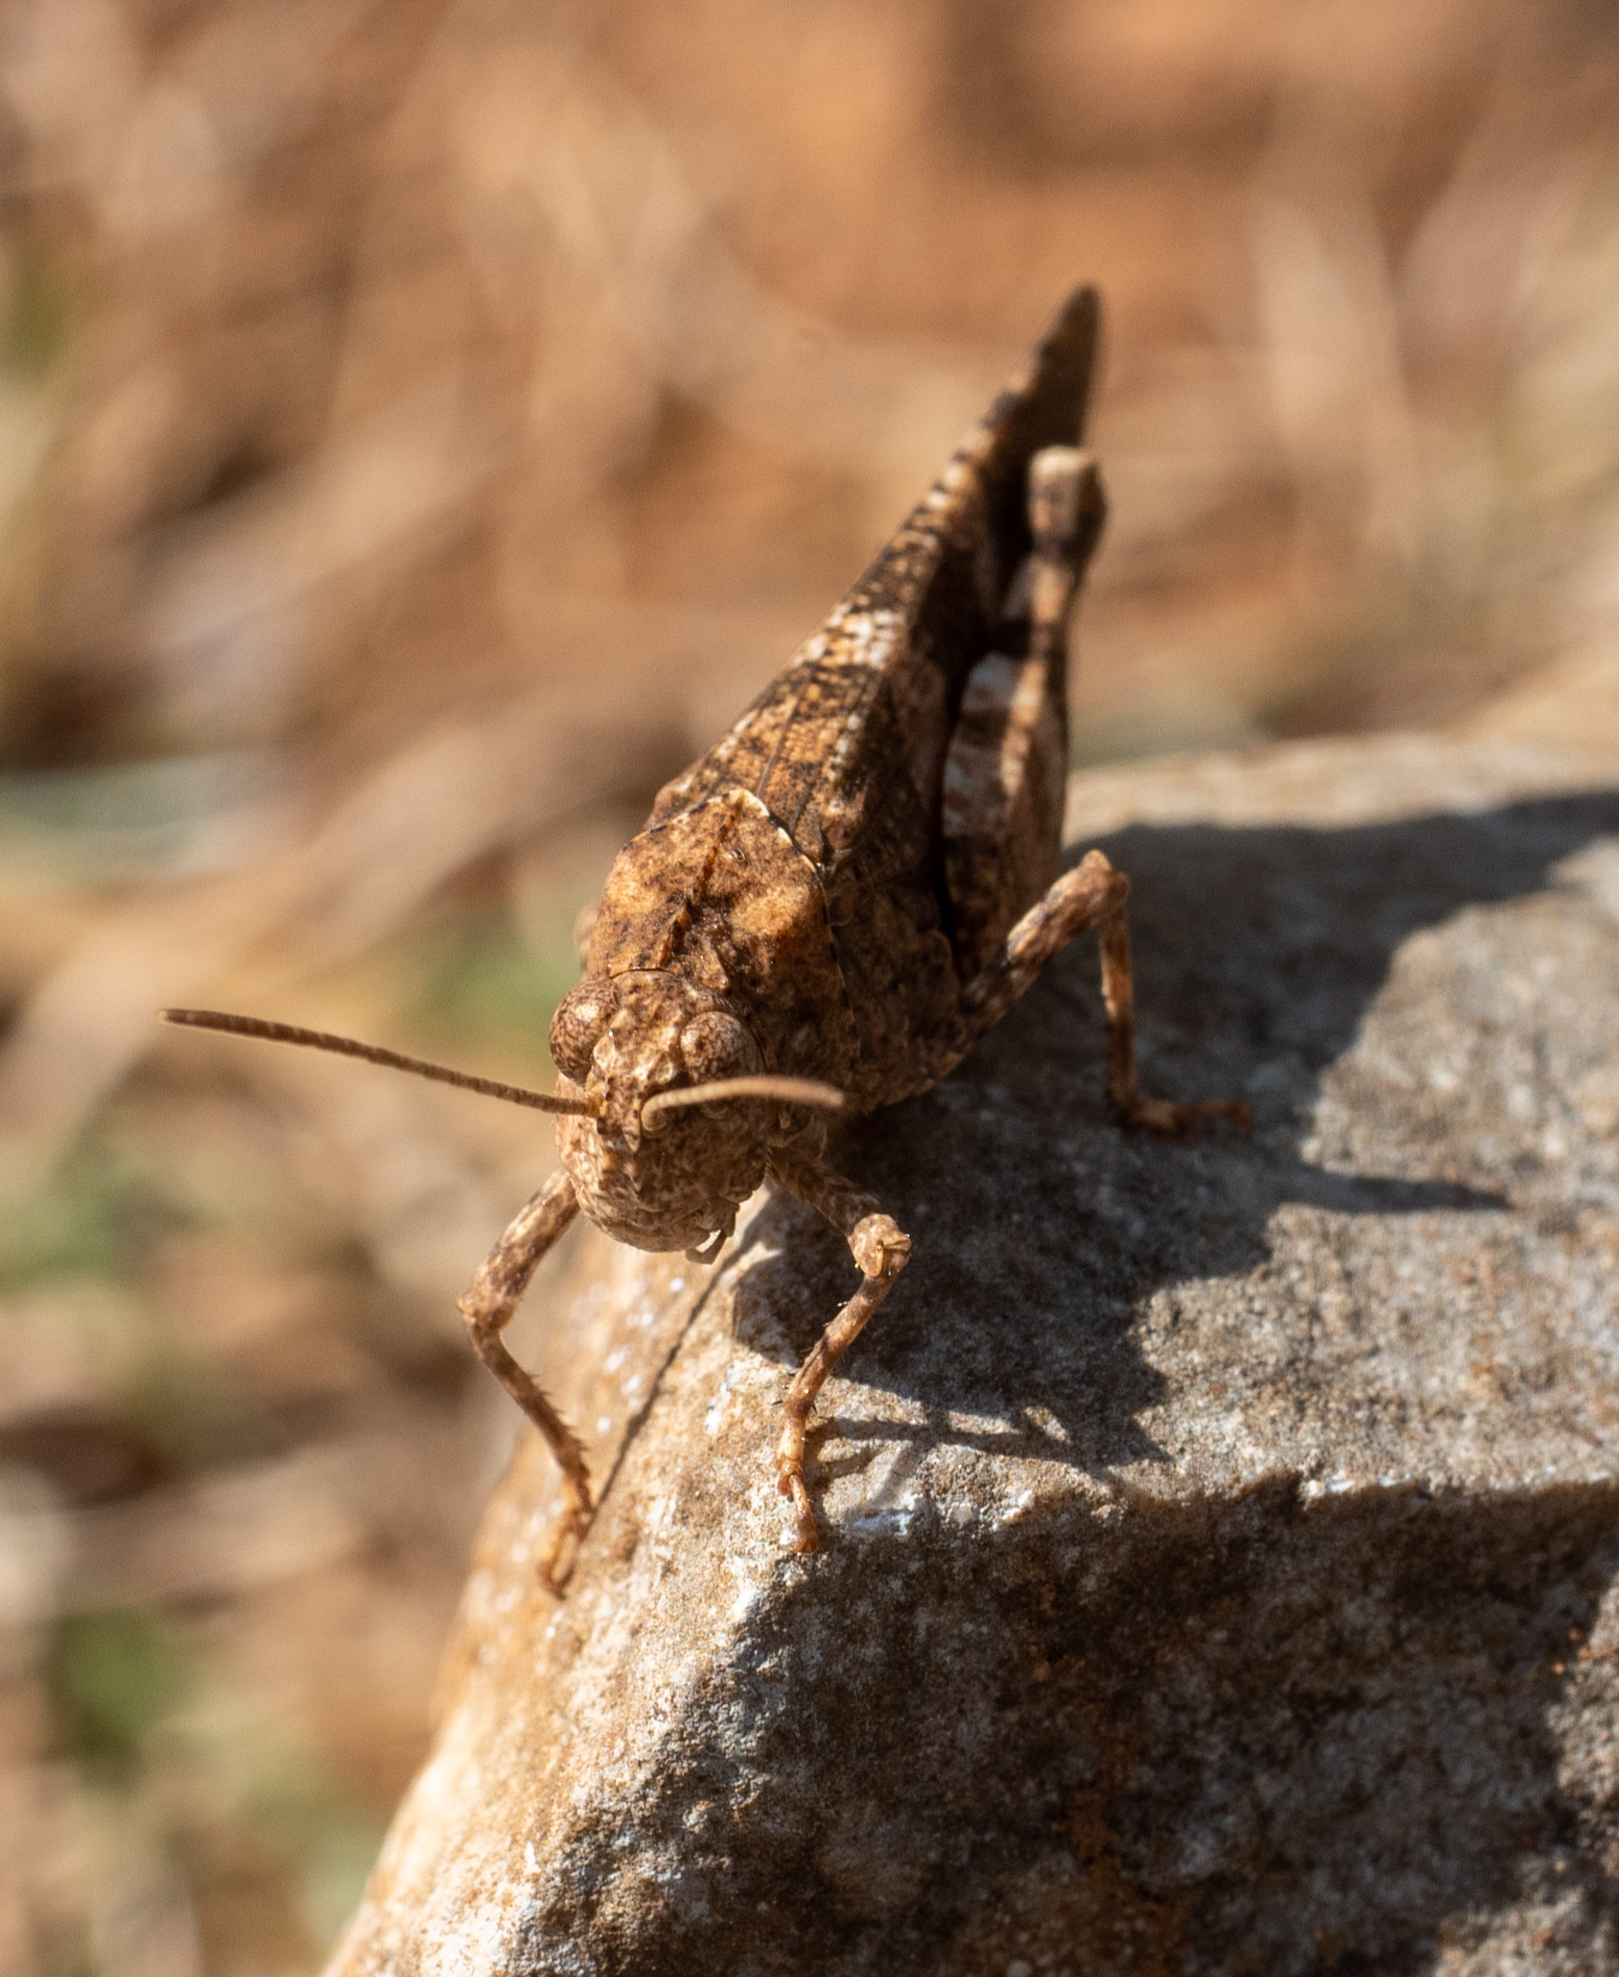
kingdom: Animalia
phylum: Arthropoda
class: Insecta
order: Orthoptera
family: Acrididae
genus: Oedipoda
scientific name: Oedipoda caerulescens
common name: Blue-winged grasshopper
